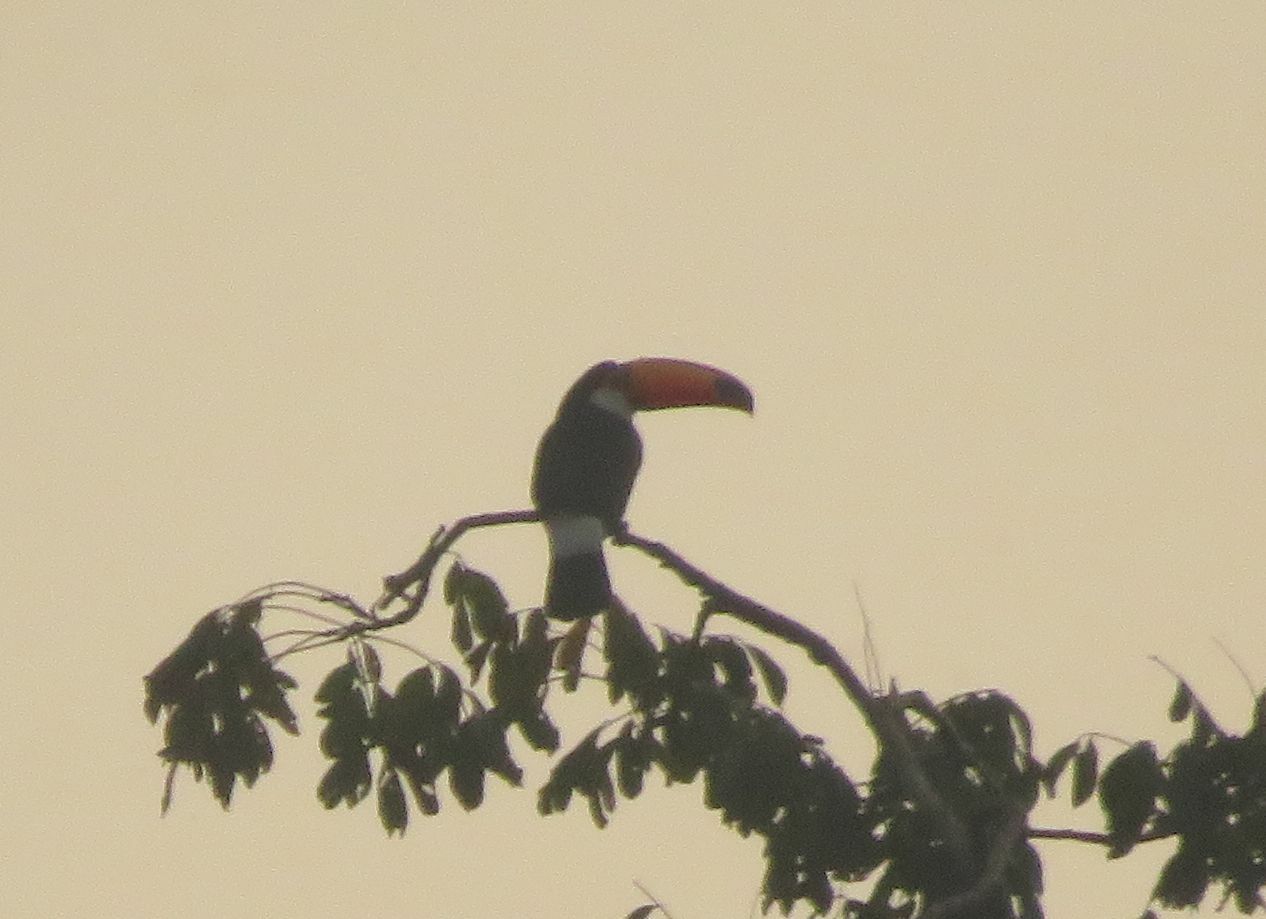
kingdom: Animalia
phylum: Chordata
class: Aves
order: Piciformes
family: Ramphastidae
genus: Ramphastos
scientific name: Ramphastos toco
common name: Toco toucan
